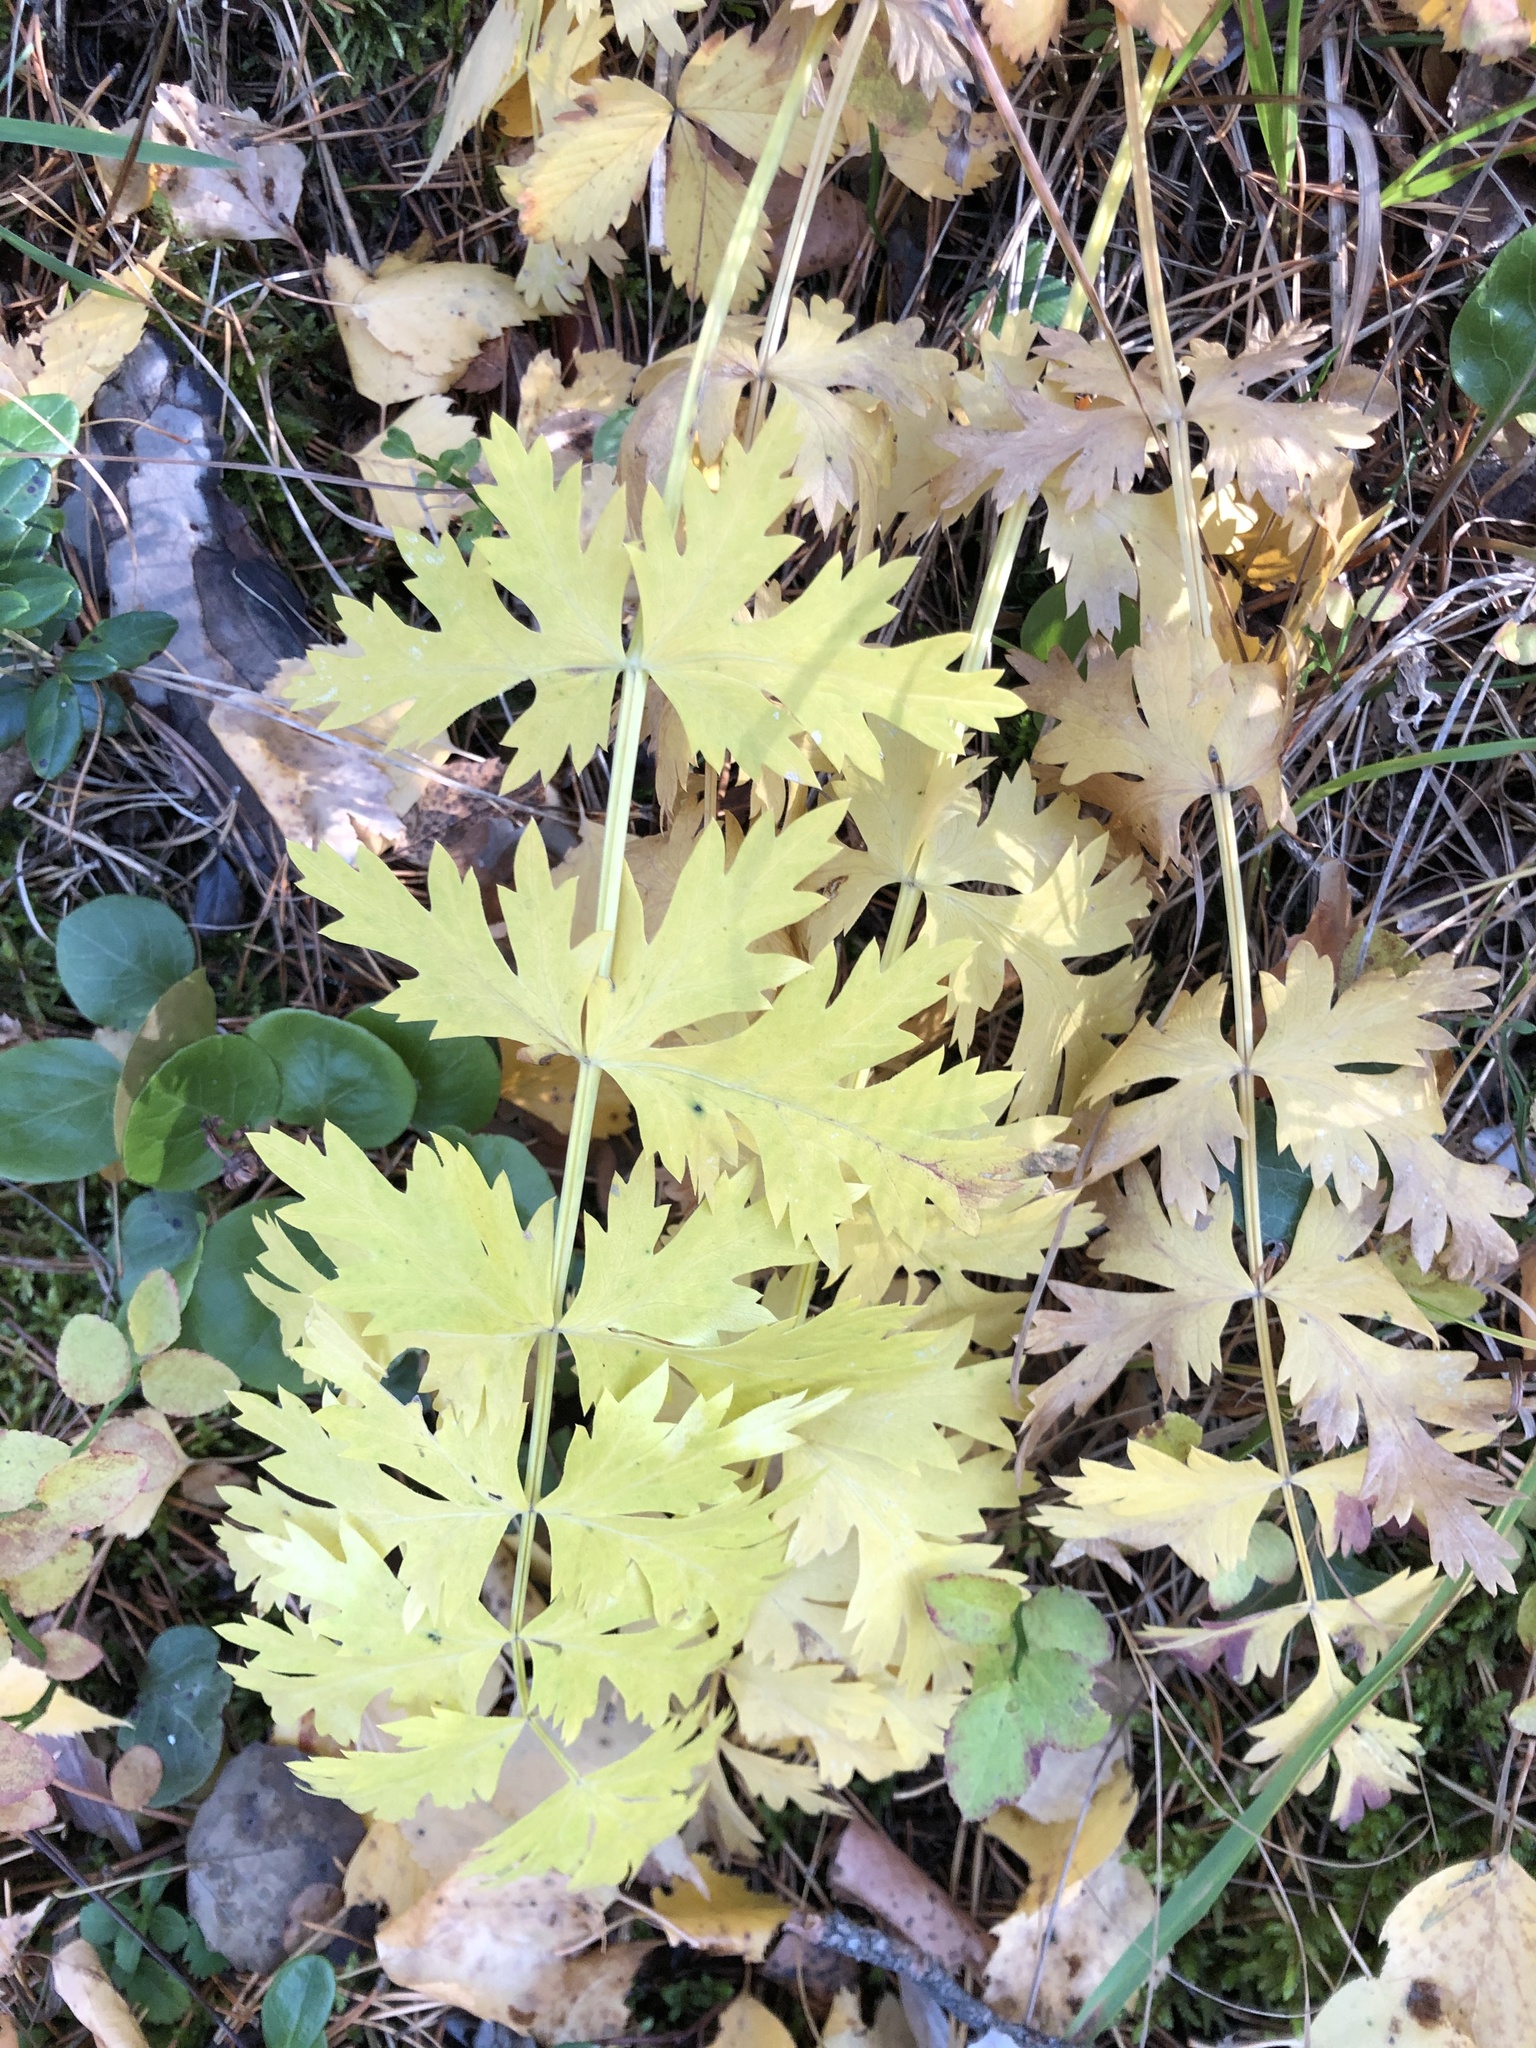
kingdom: Plantae
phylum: Tracheophyta
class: Magnoliopsida
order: Apiales
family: Apiaceae
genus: Seseli
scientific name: Seseli krylovii
